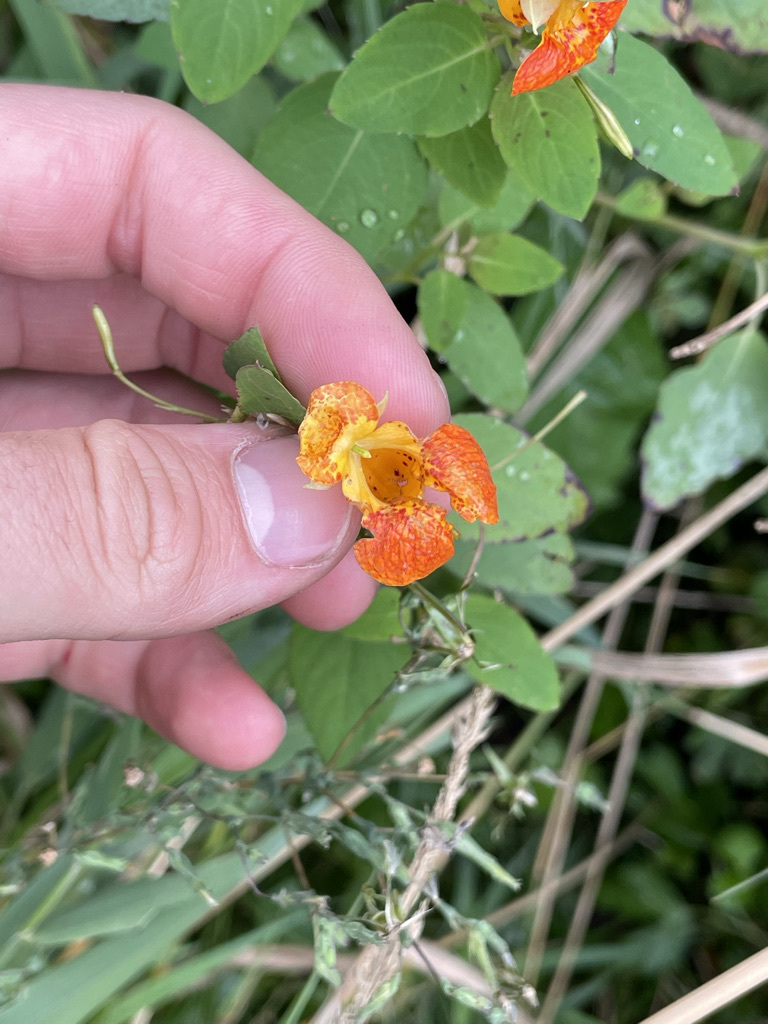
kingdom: Plantae
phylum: Tracheophyta
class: Magnoliopsida
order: Ericales
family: Balsaminaceae
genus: Impatiens
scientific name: Impatiens capensis
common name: Orange balsam
